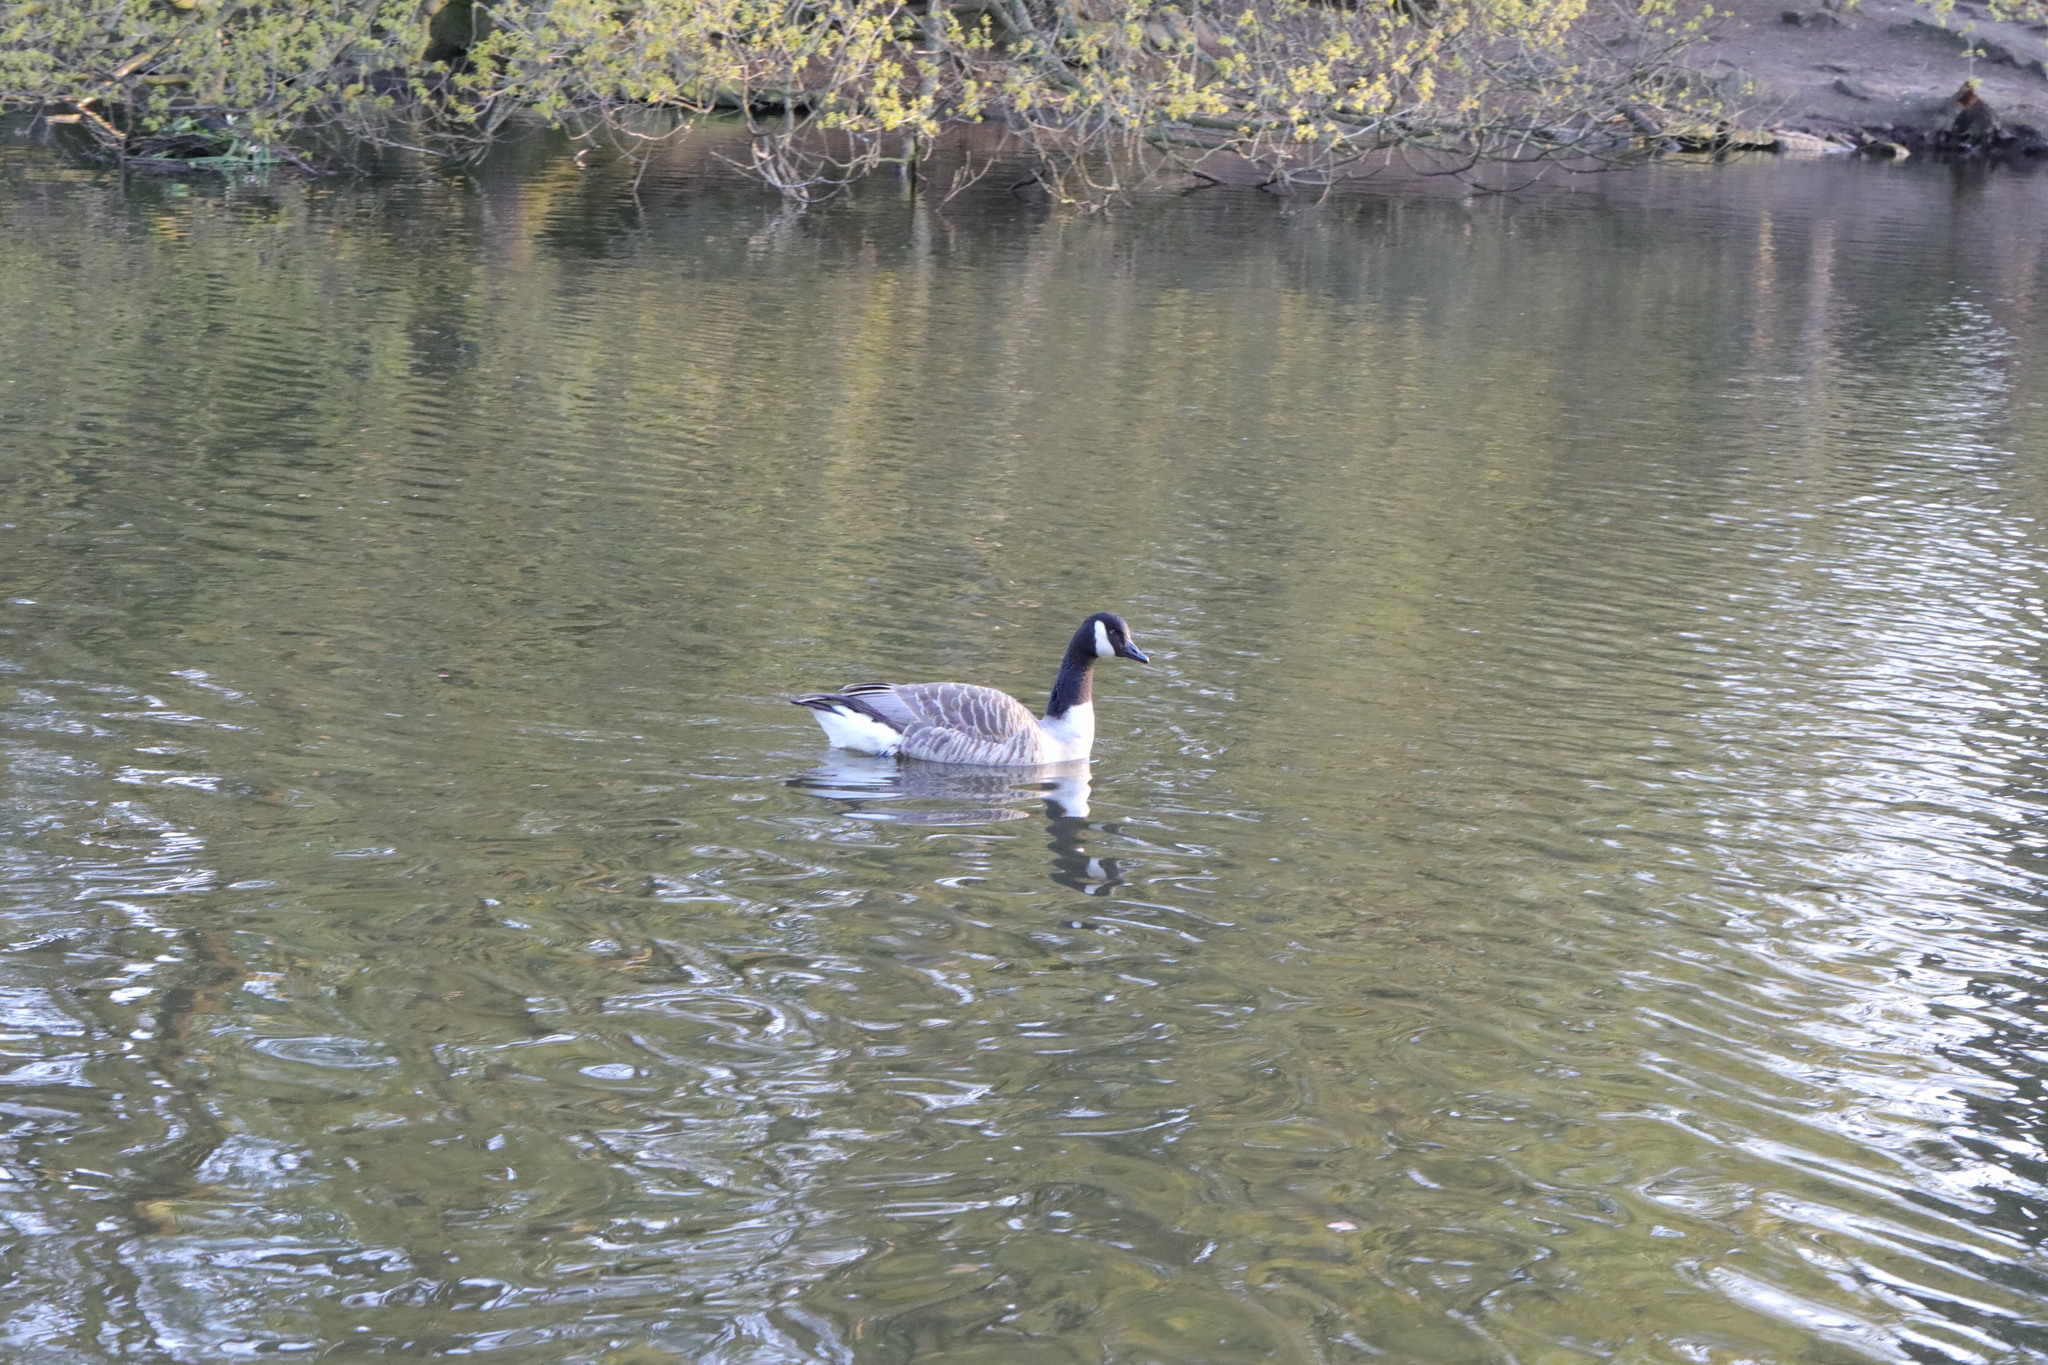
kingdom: Animalia
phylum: Chordata
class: Aves
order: Anseriformes
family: Anatidae
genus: Branta
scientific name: Branta canadensis
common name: Canada goose
